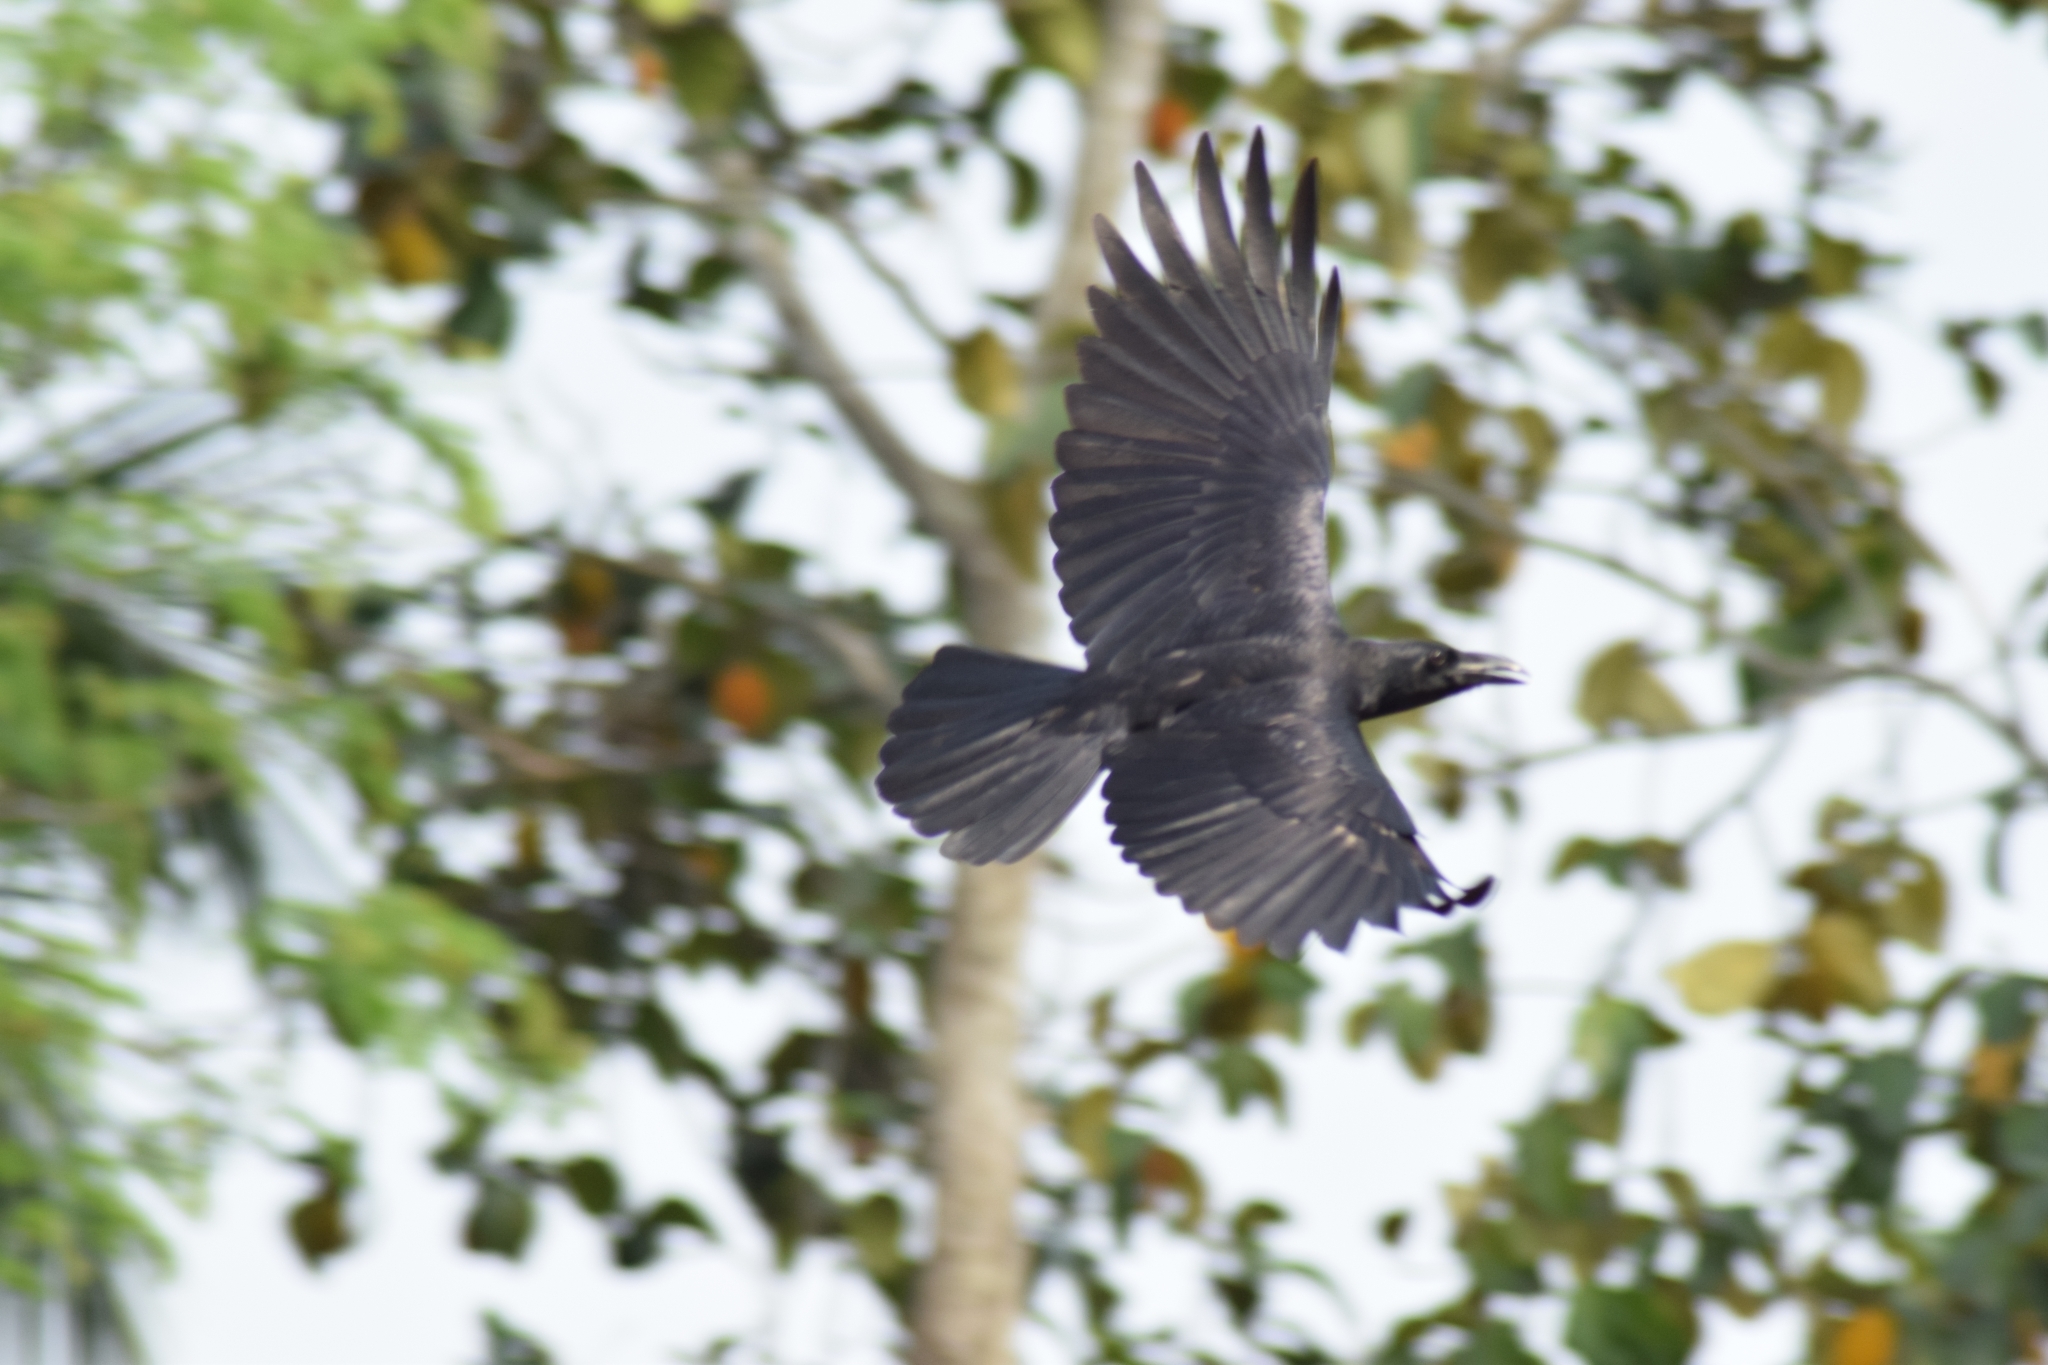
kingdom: Animalia
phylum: Chordata
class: Aves
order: Passeriformes
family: Corvidae
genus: Corvus
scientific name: Corvus macrorhynchos
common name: Large-billed crow
